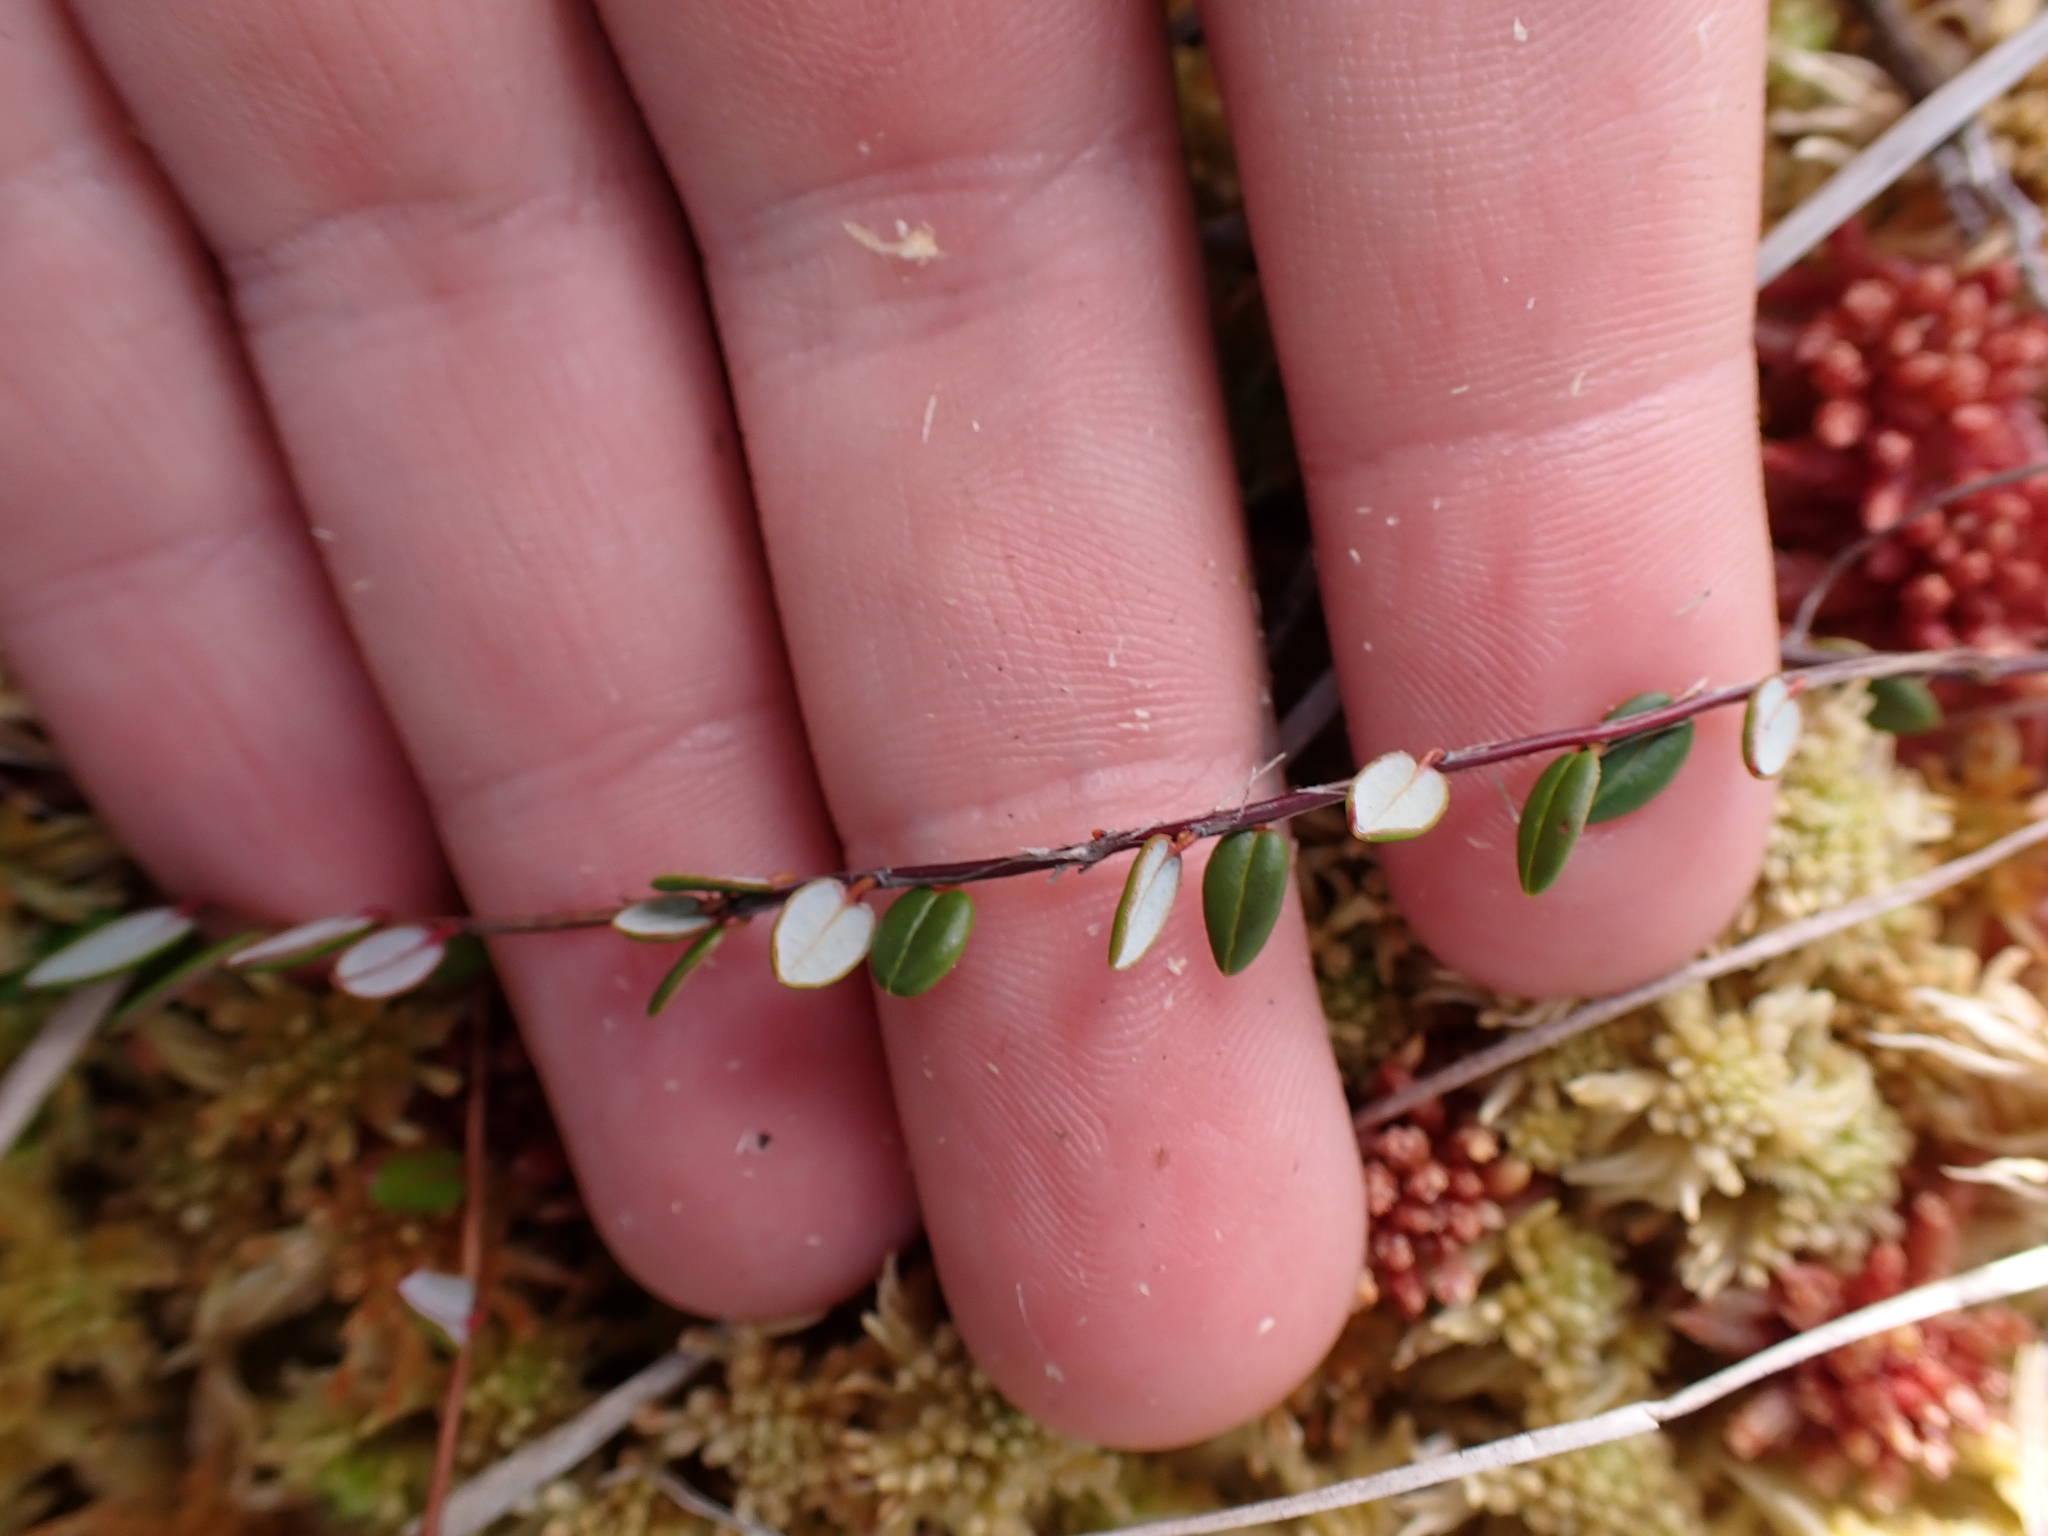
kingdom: Plantae
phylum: Tracheophyta
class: Magnoliopsida
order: Ericales
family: Ericaceae
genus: Vaccinium
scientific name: Vaccinium oxycoccos
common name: Cranberry
